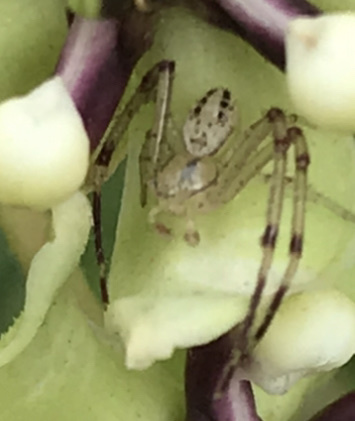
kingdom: Animalia
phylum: Arthropoda
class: Arachnida
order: Araneae
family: Thomisidae
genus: Mecaphesa
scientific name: Mecaphesa celer
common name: Crab spiders
